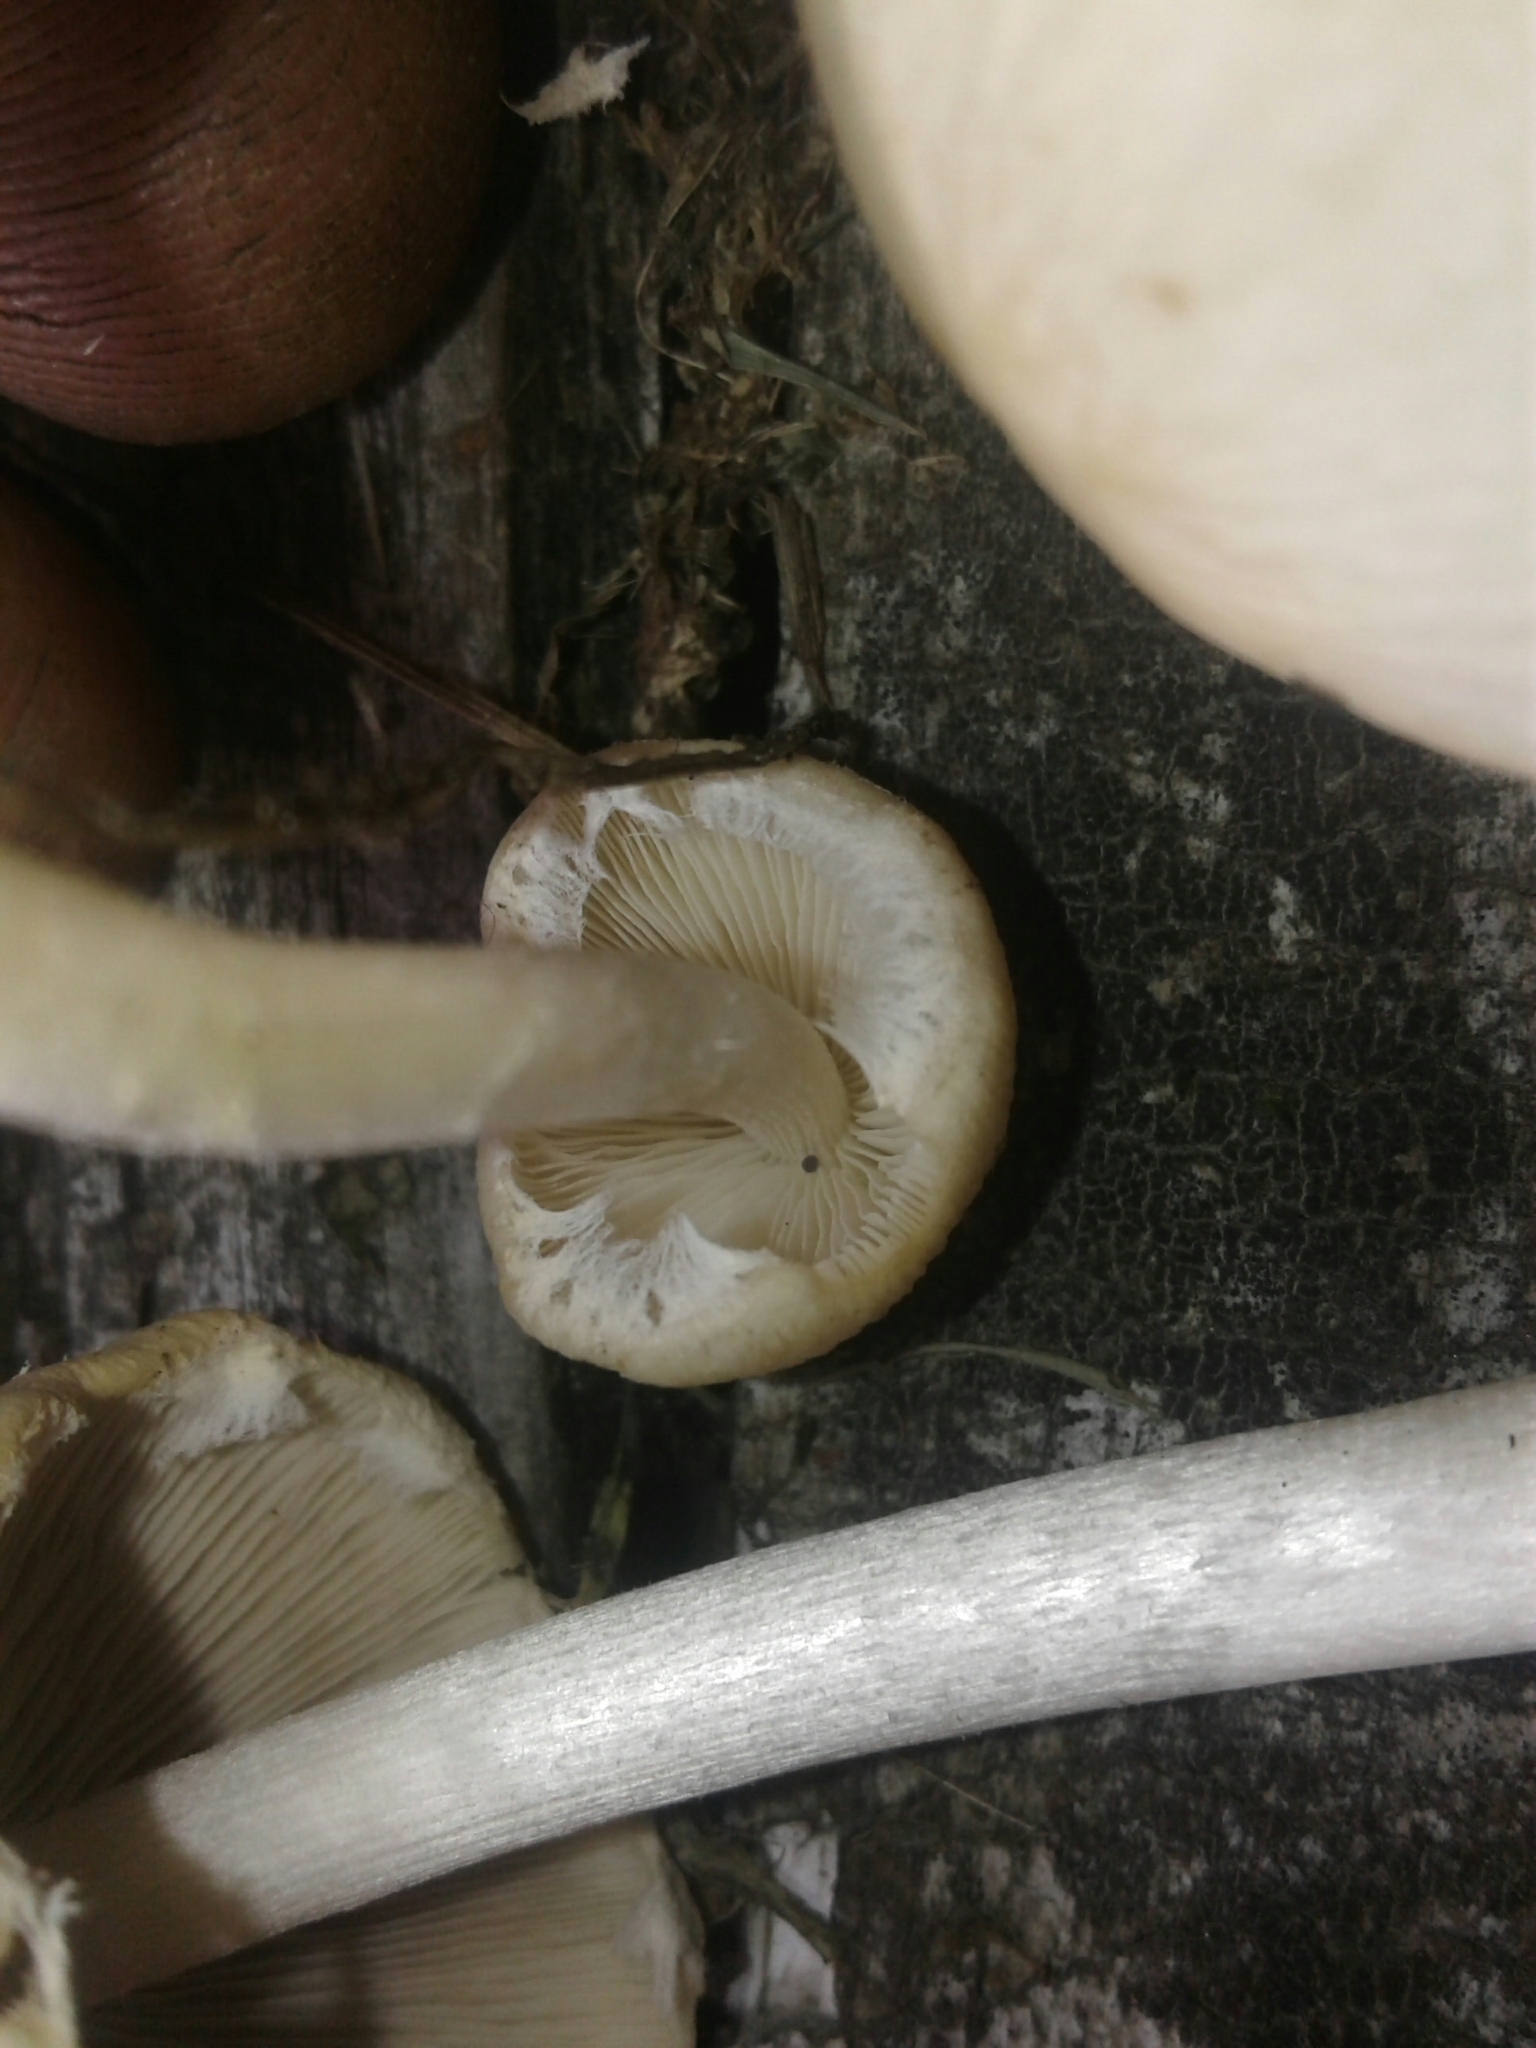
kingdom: Fungi
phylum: Basidiomycota
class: Agaricomycetes
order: Agaricales
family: Psathyrellaceae
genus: Candolleomyces
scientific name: Candolleomyces candolleanus
